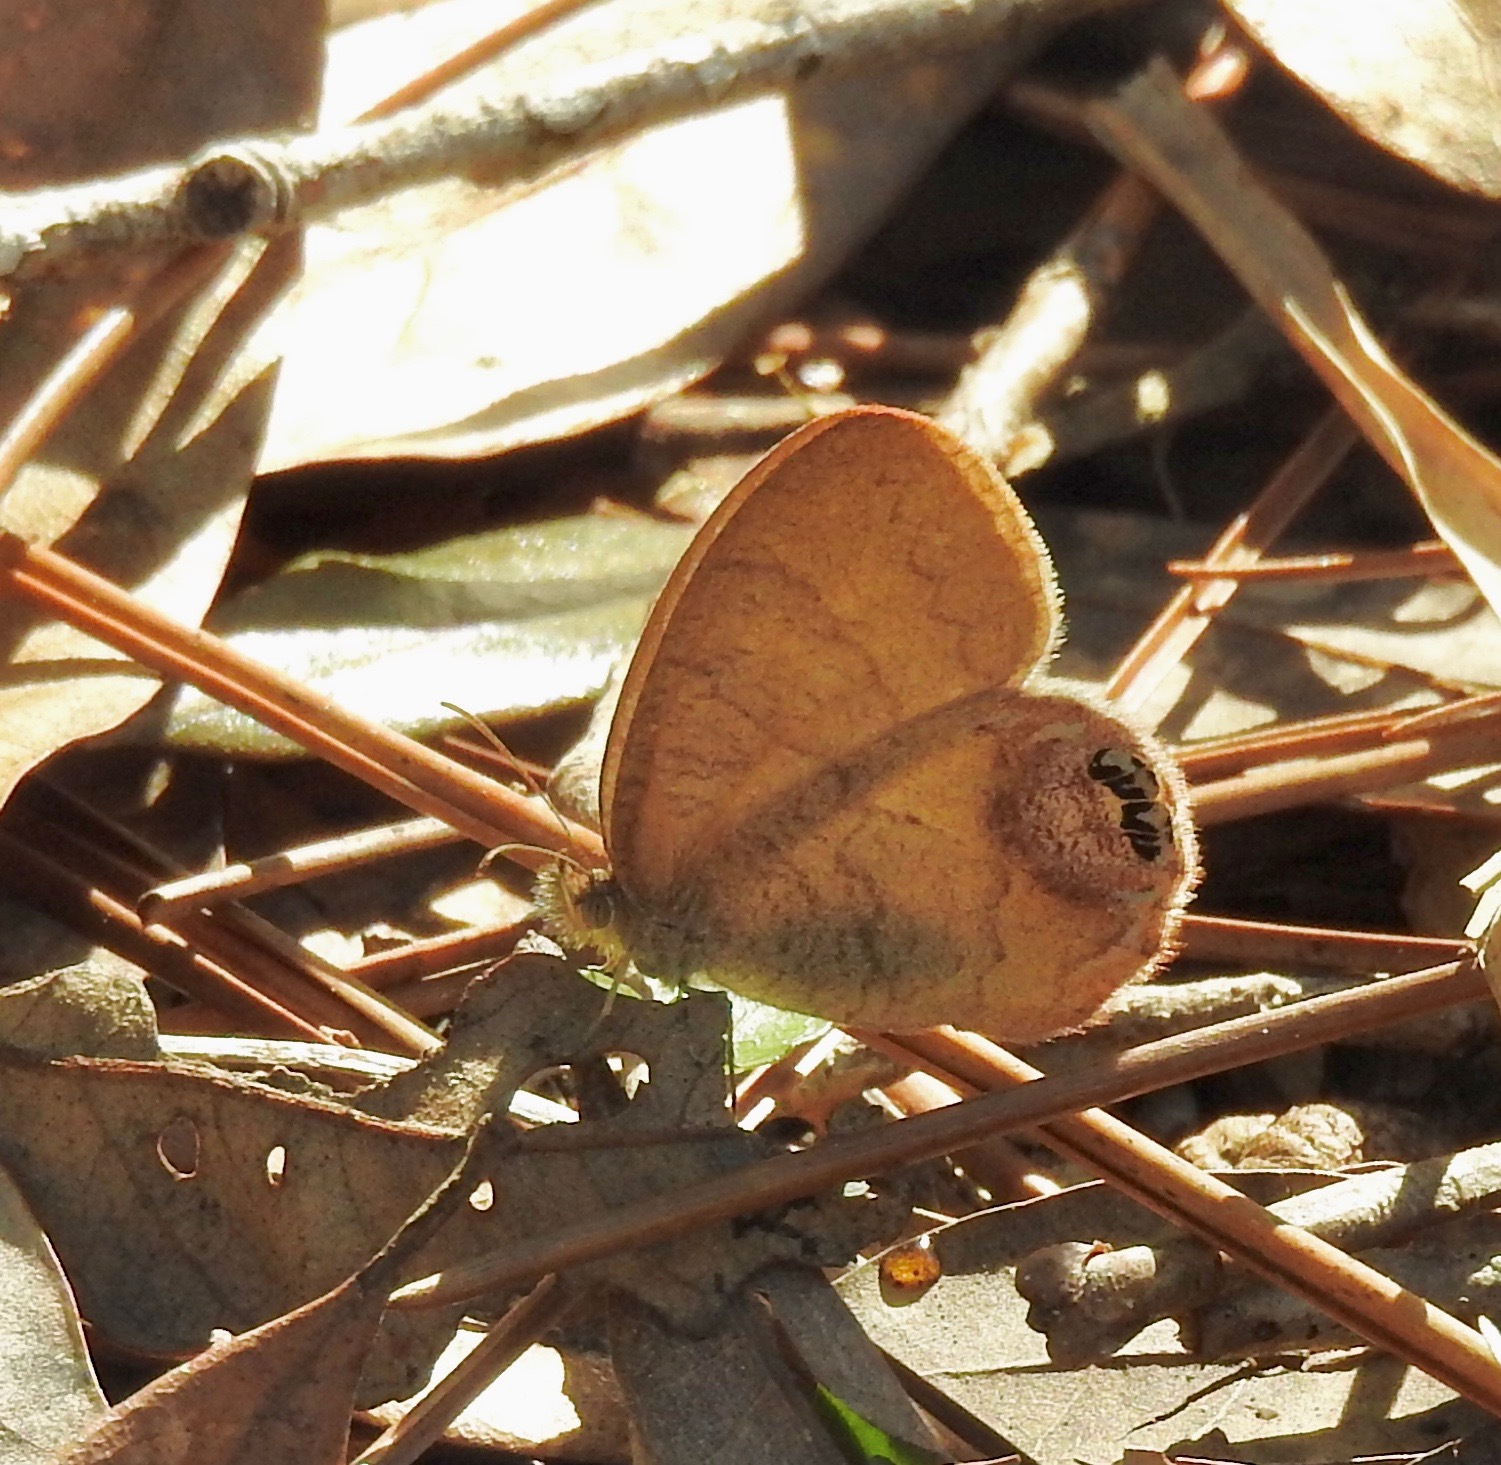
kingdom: Animalia
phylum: Arthropoda
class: Insecta
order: Lepidoptera
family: Nymphalidae
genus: Euptychia
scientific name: Euptychia cornelius
